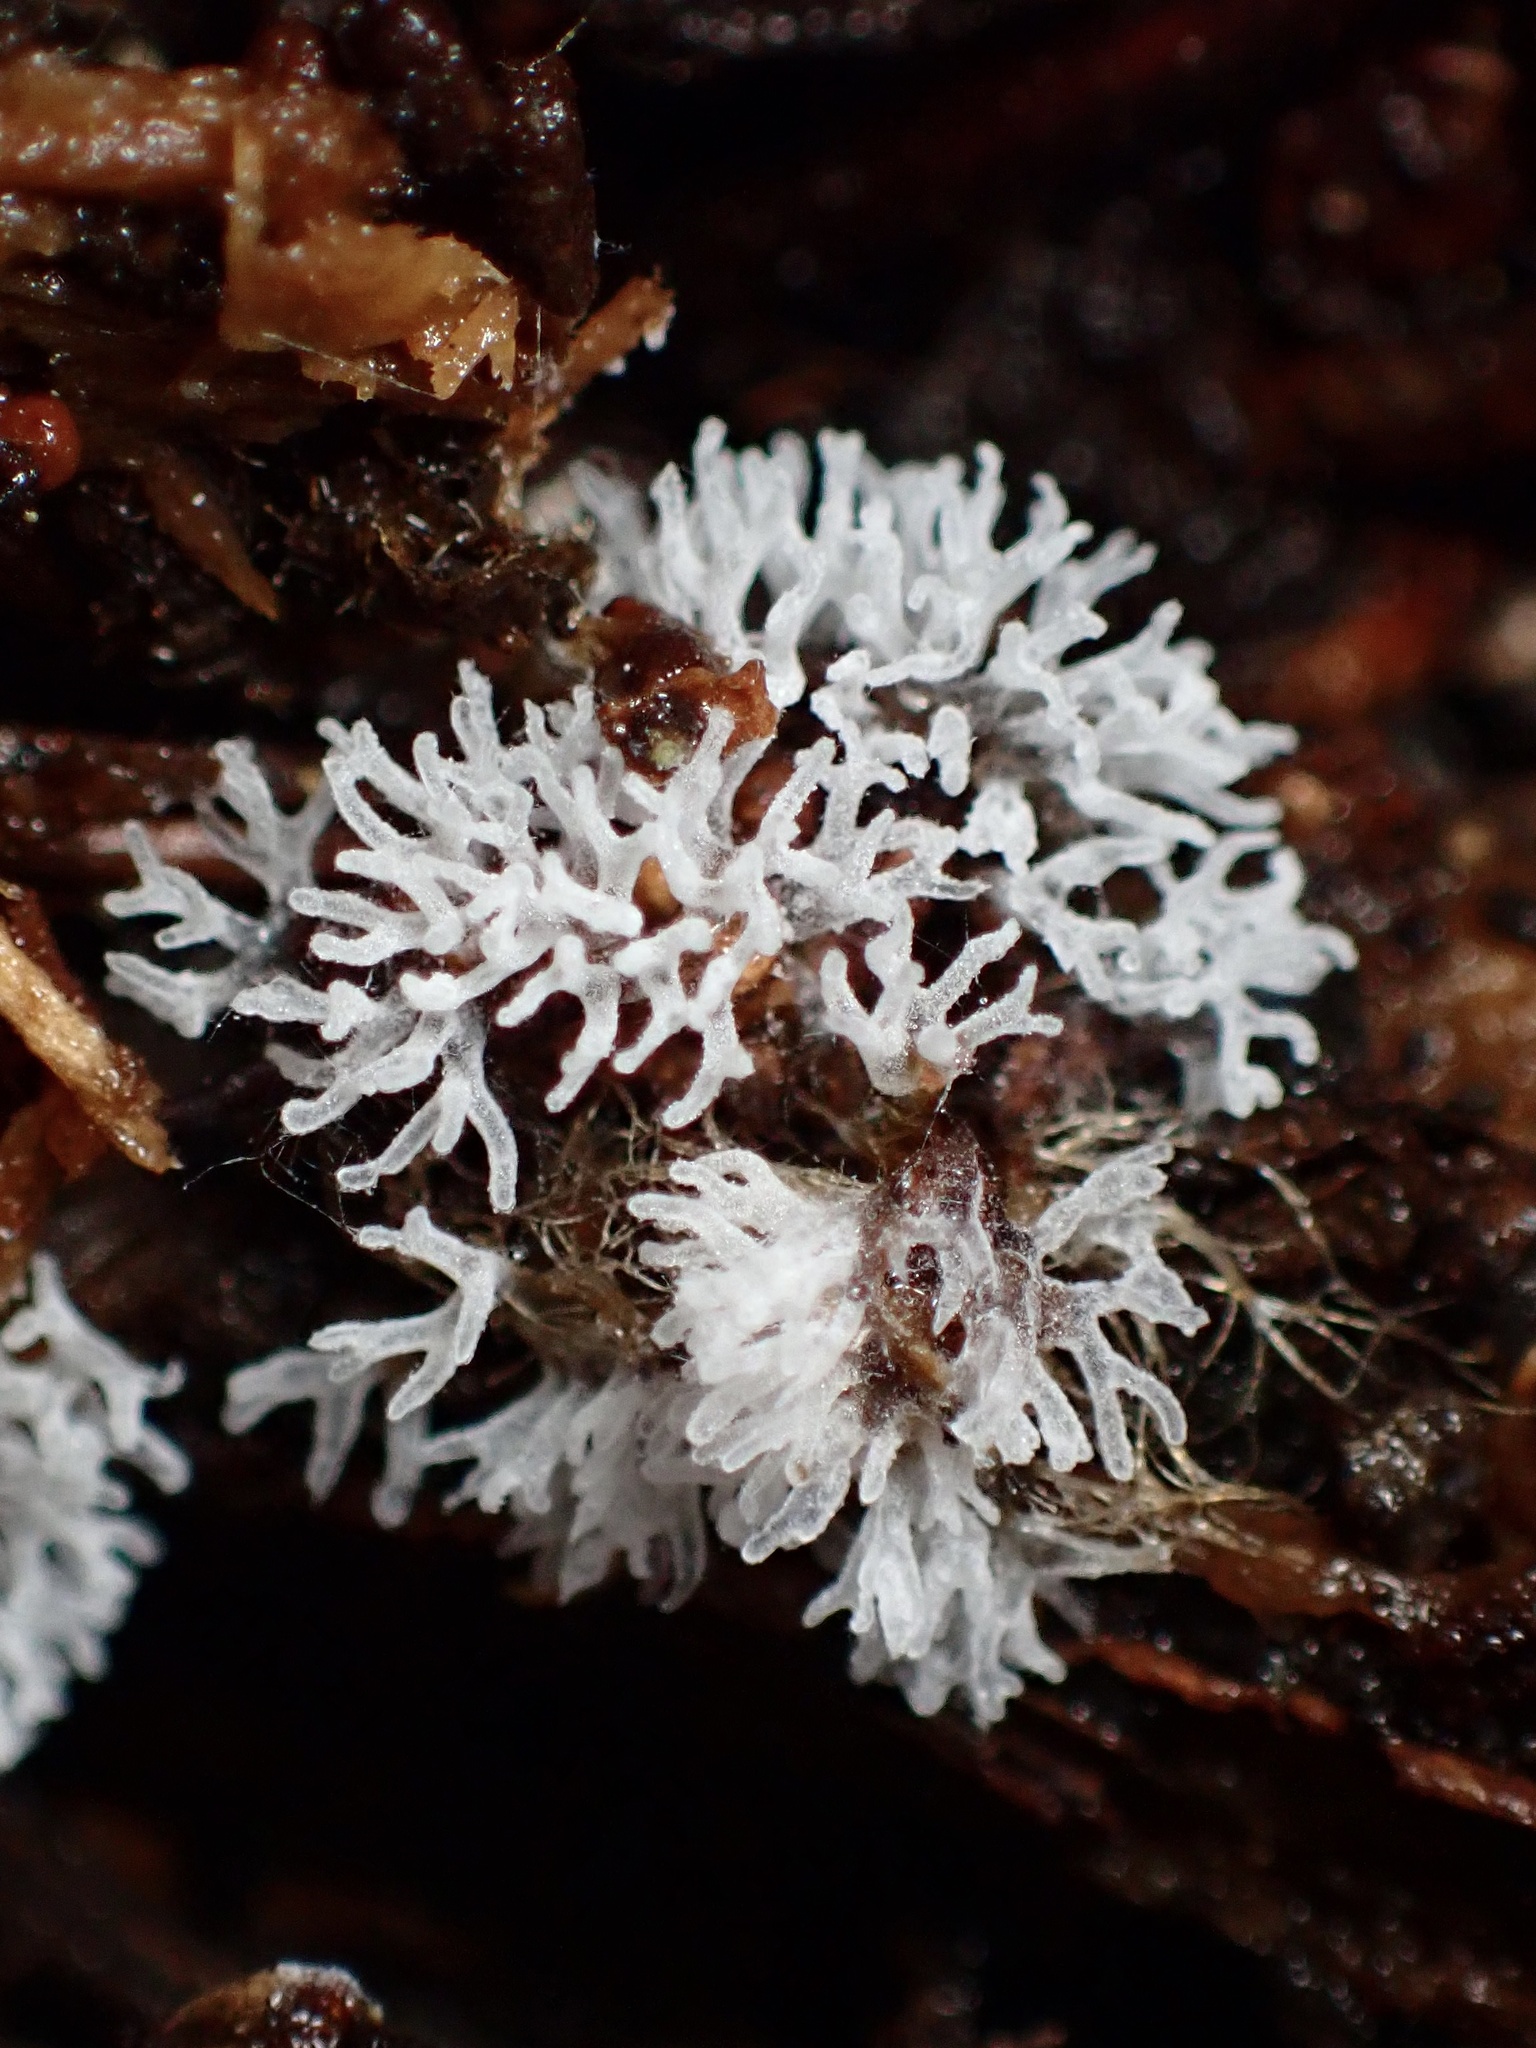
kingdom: Protozoa
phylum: Mycetozoa
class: Protosteliomycetes
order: Ceratiomyxales
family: Ceratiomyxaceae
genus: Ceratiomyxa
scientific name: Ceratiomyxa fruticulosa
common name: Honeycomb coral slime mold
